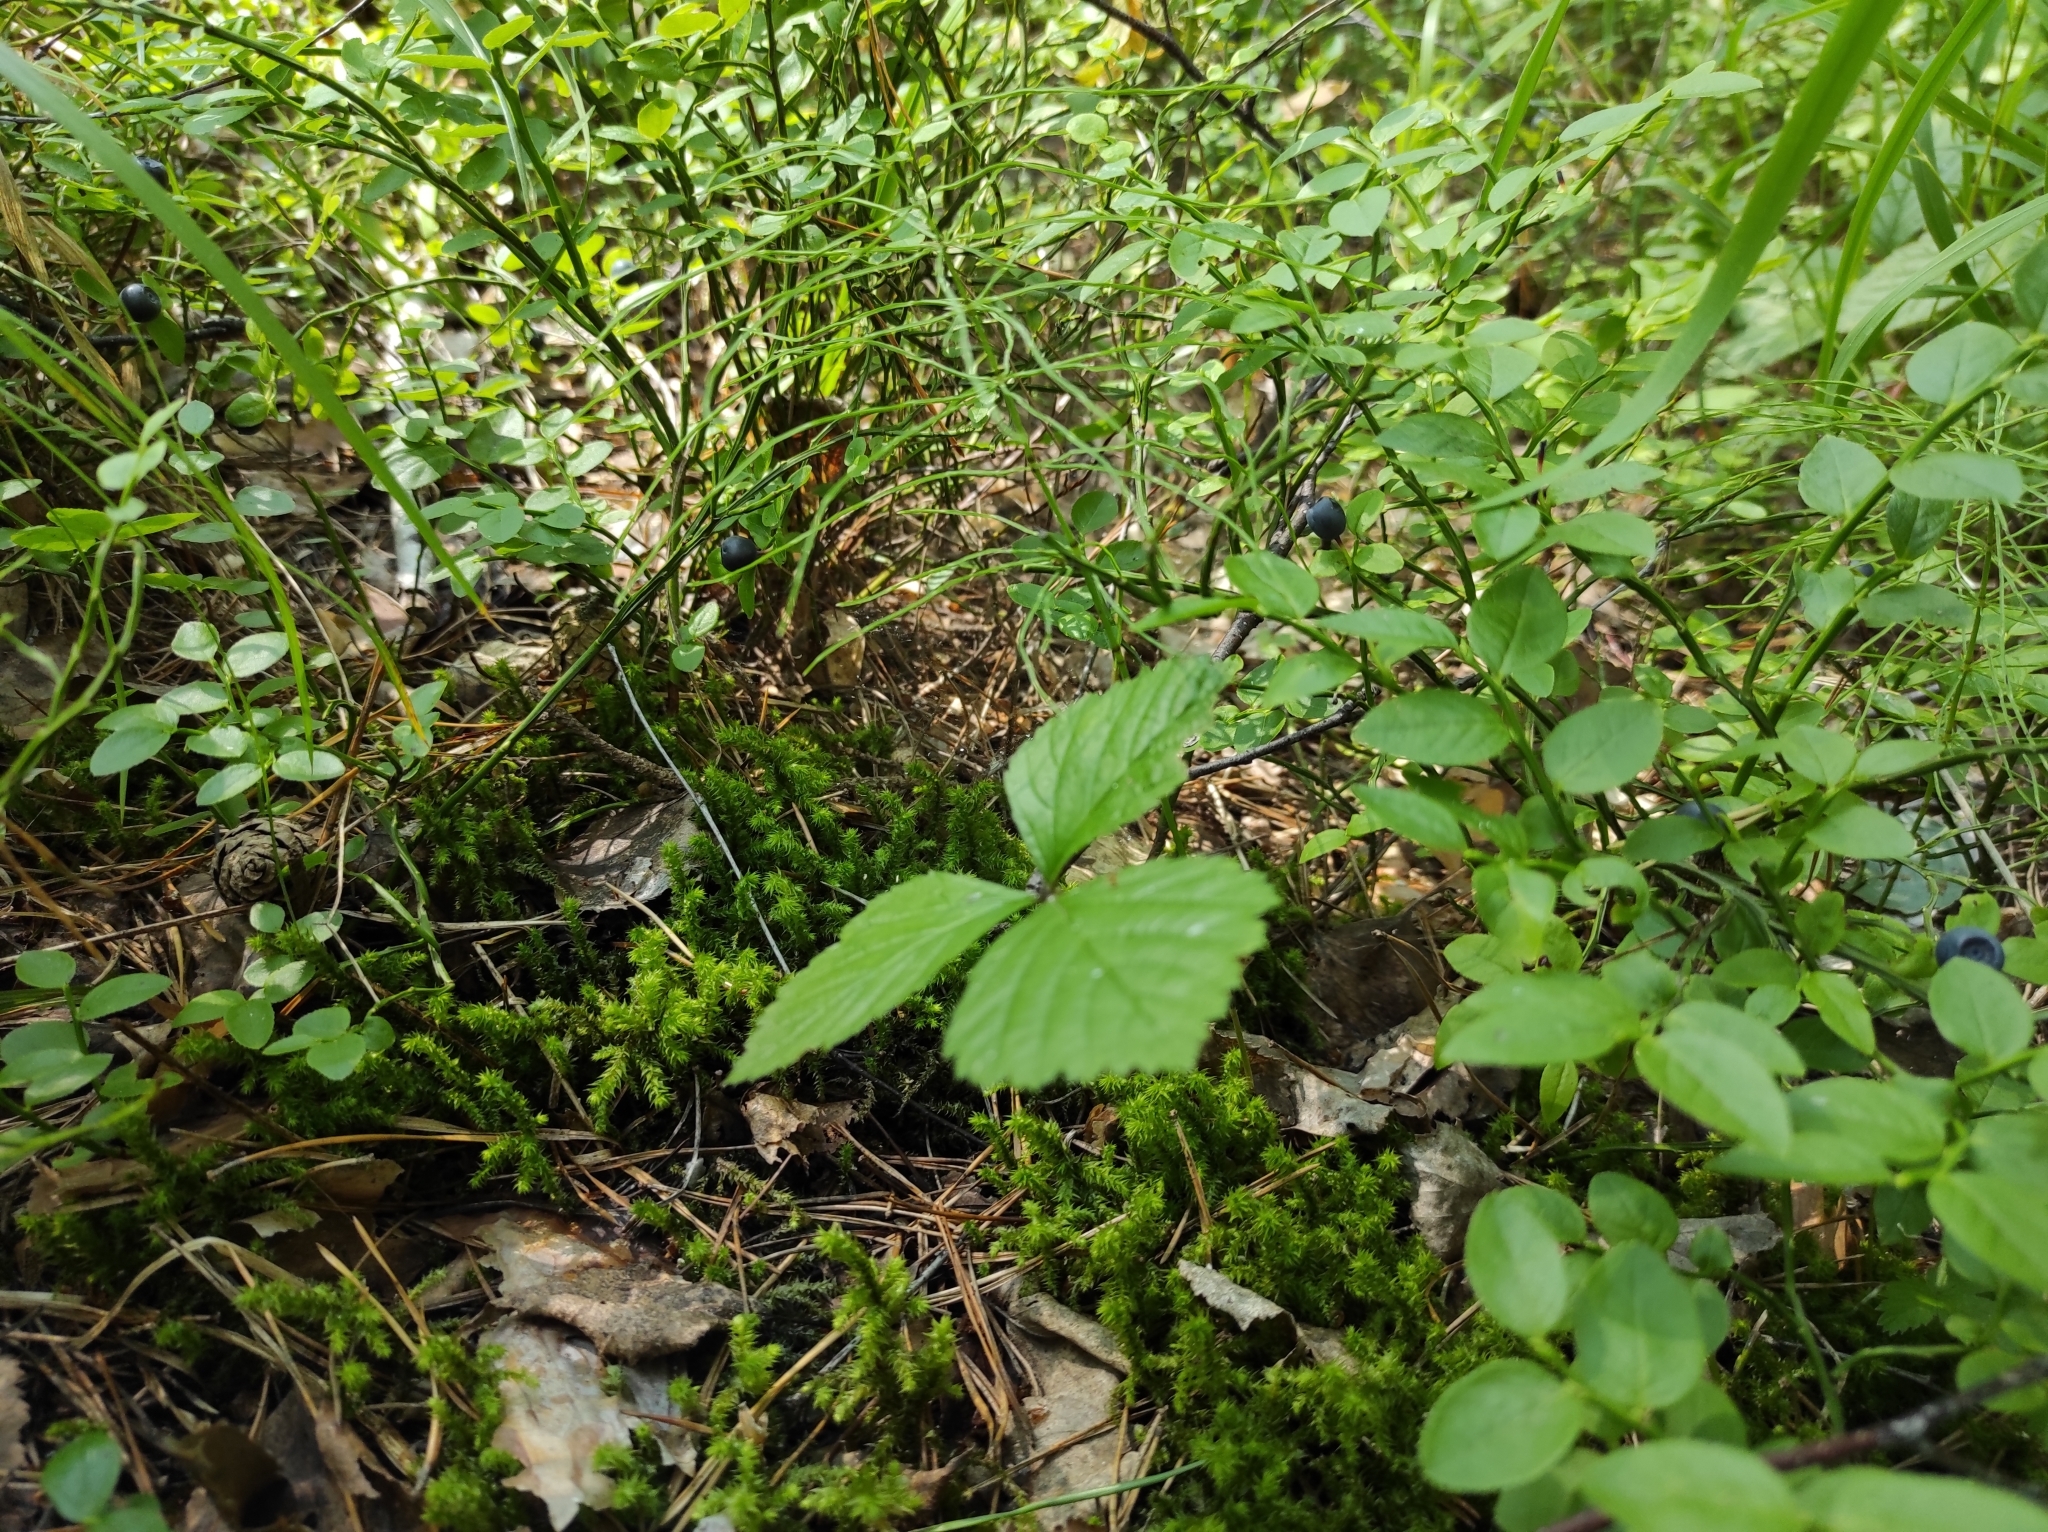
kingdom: Plantae
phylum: Tracheophyta
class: Magnoliopsida
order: Ericales
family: Ericaceae
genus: Vaccinium
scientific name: Vaccinium myrtillus
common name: Bilberry
